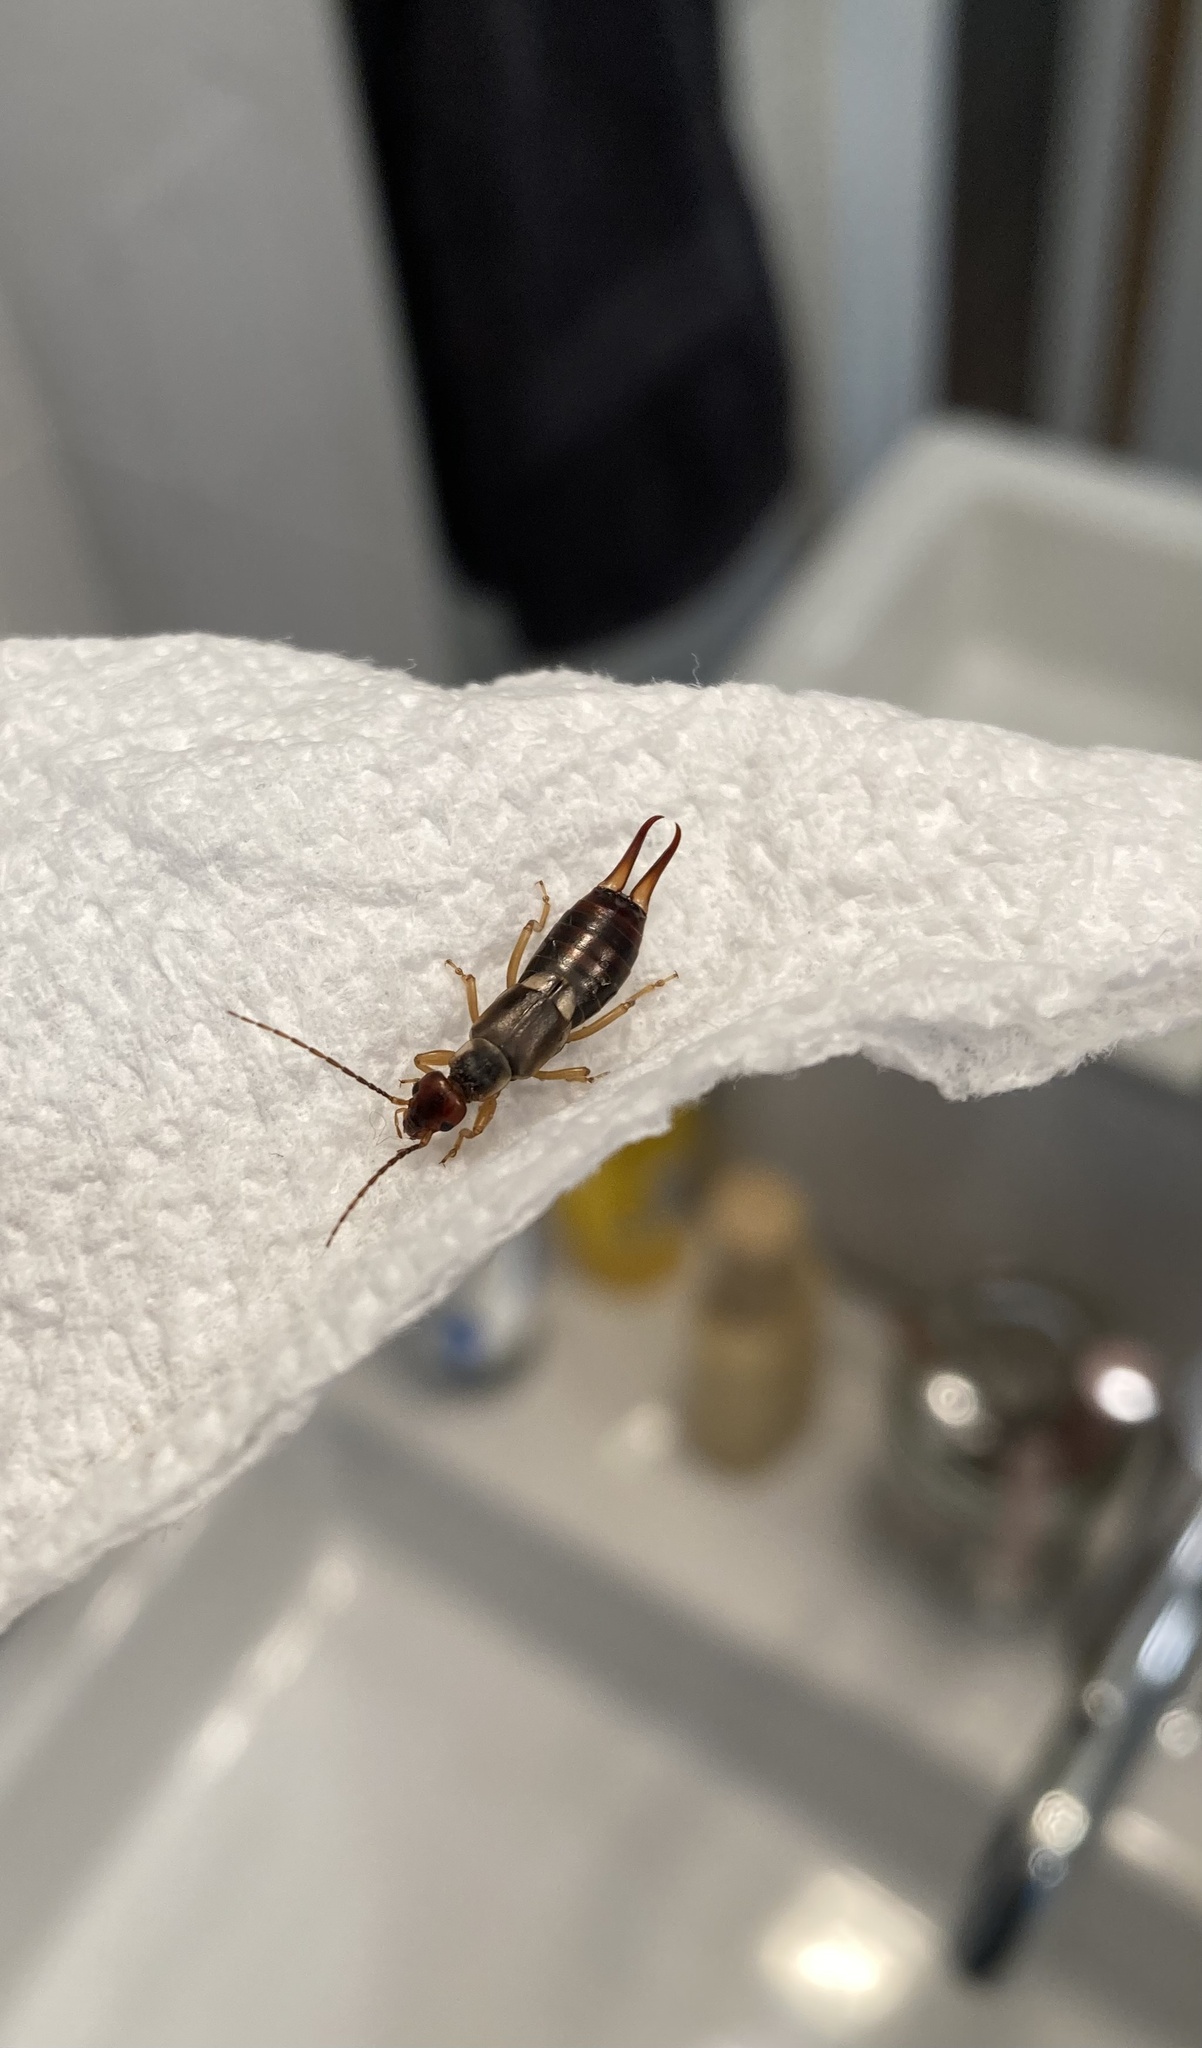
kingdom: Animalia
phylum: Arthropoda
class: Insecta
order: Dermaptera
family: Forficulidae
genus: Forficula
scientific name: Forficula auricularia
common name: European earwig
